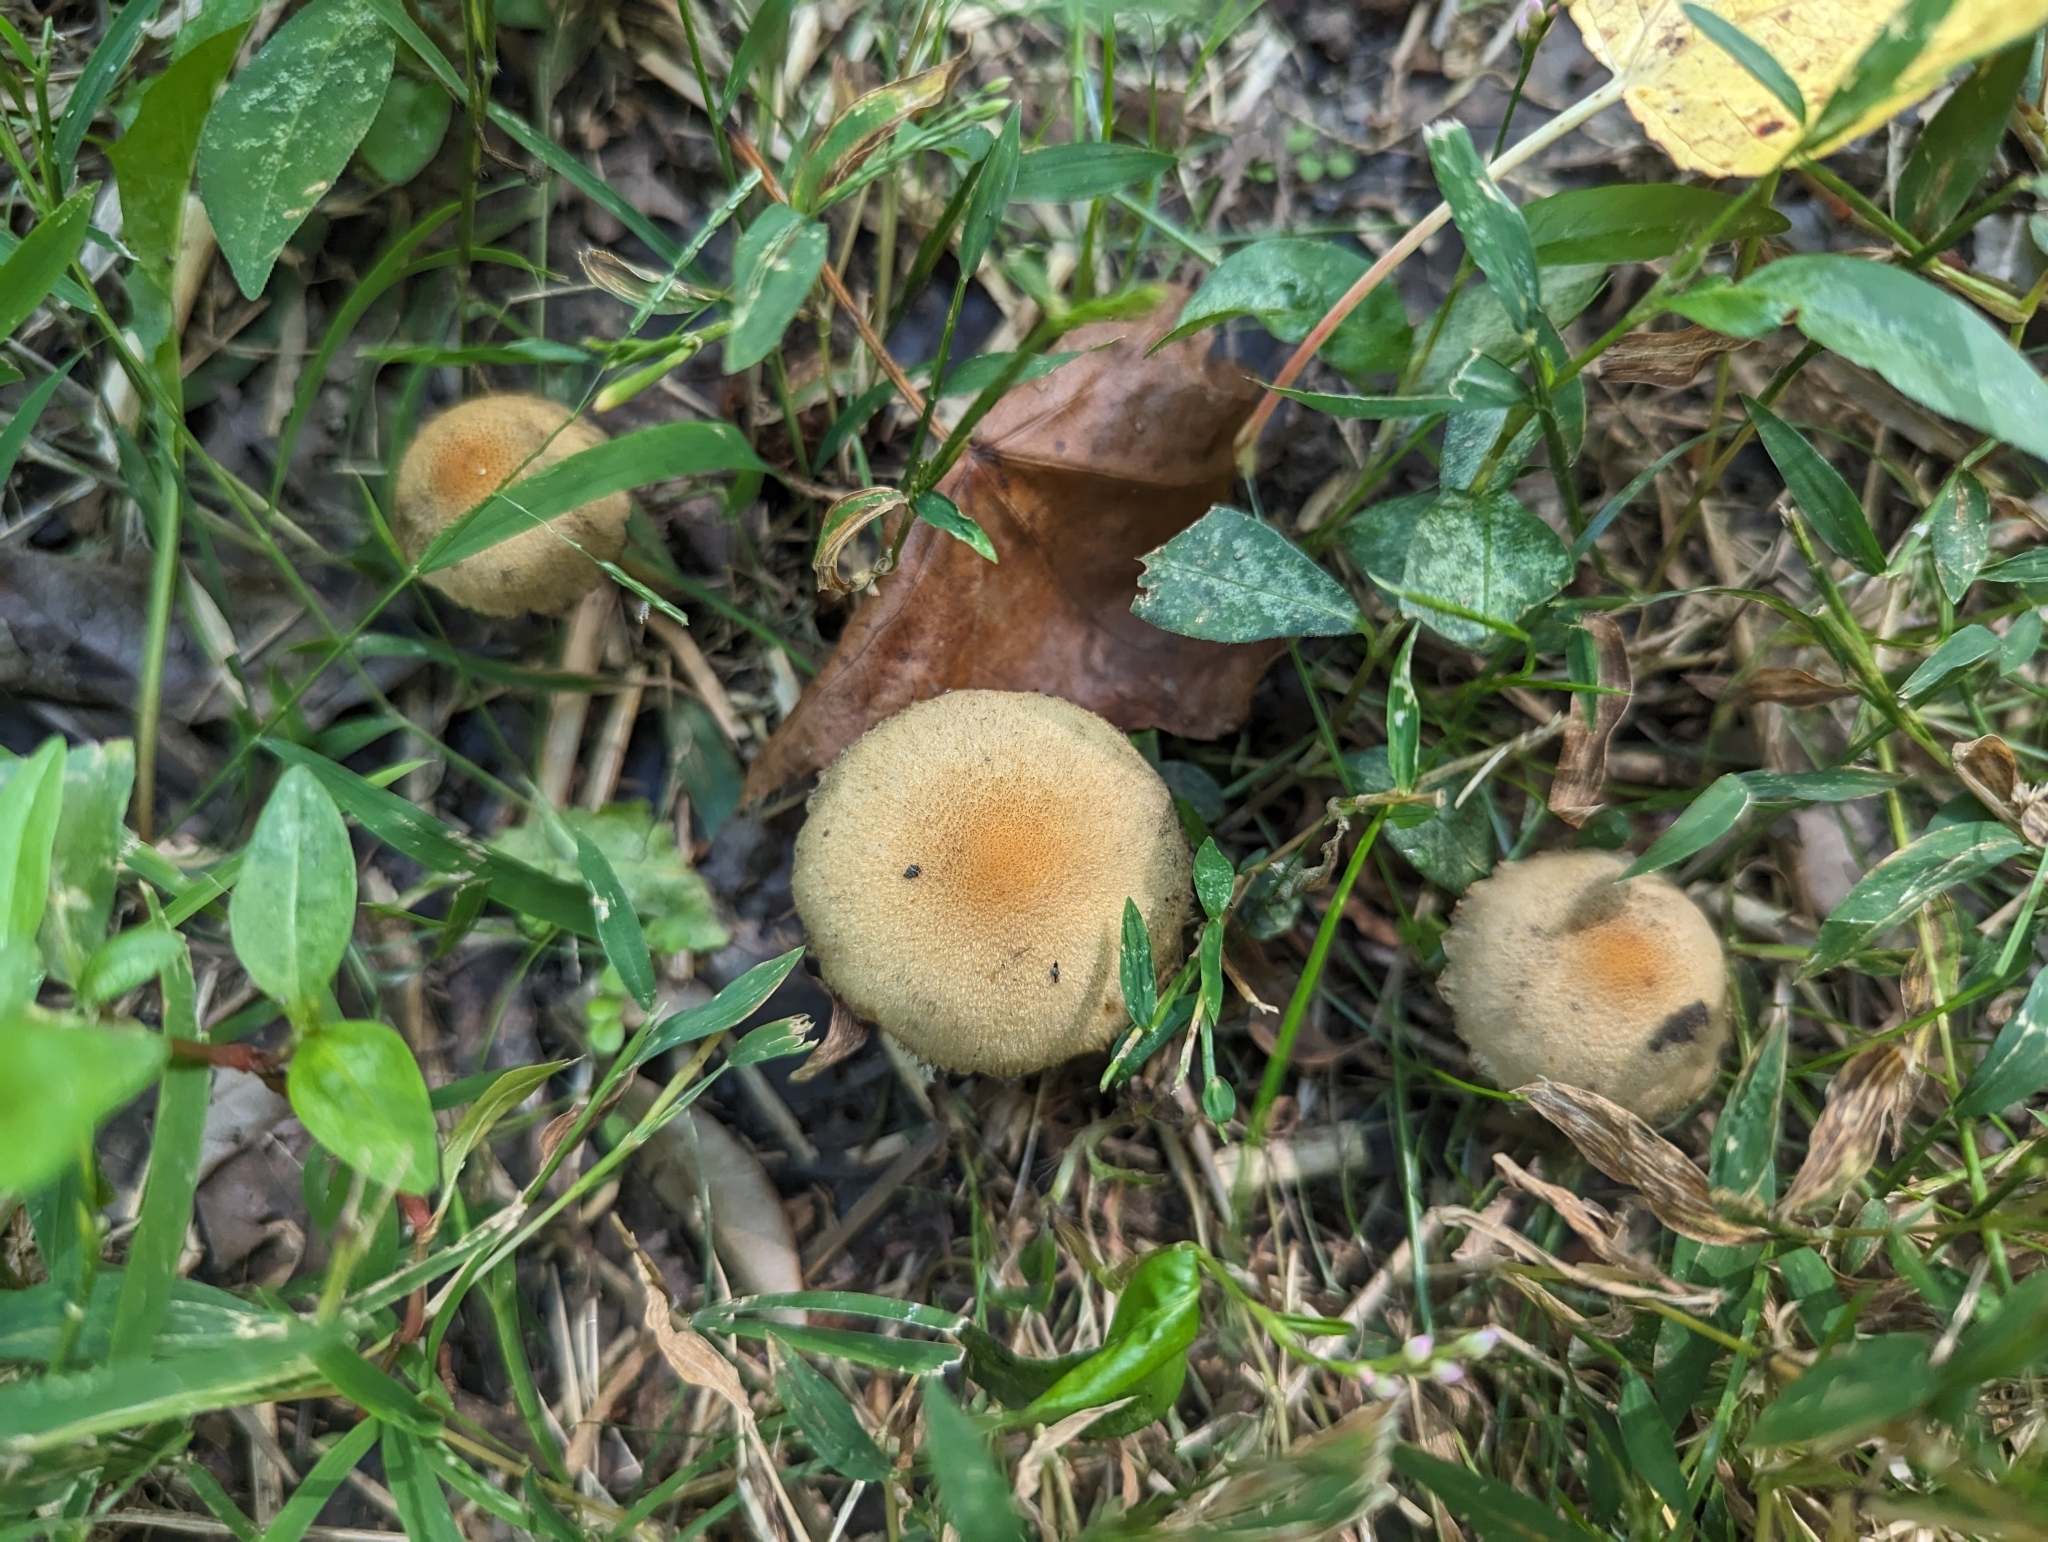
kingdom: Fungi
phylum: Basidiomycota
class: Agaricomycetes
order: Agaricales
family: Psathyrellaceae
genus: Lacrymaria
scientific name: Lacrymaria lacrymabunda
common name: Weeping widow
